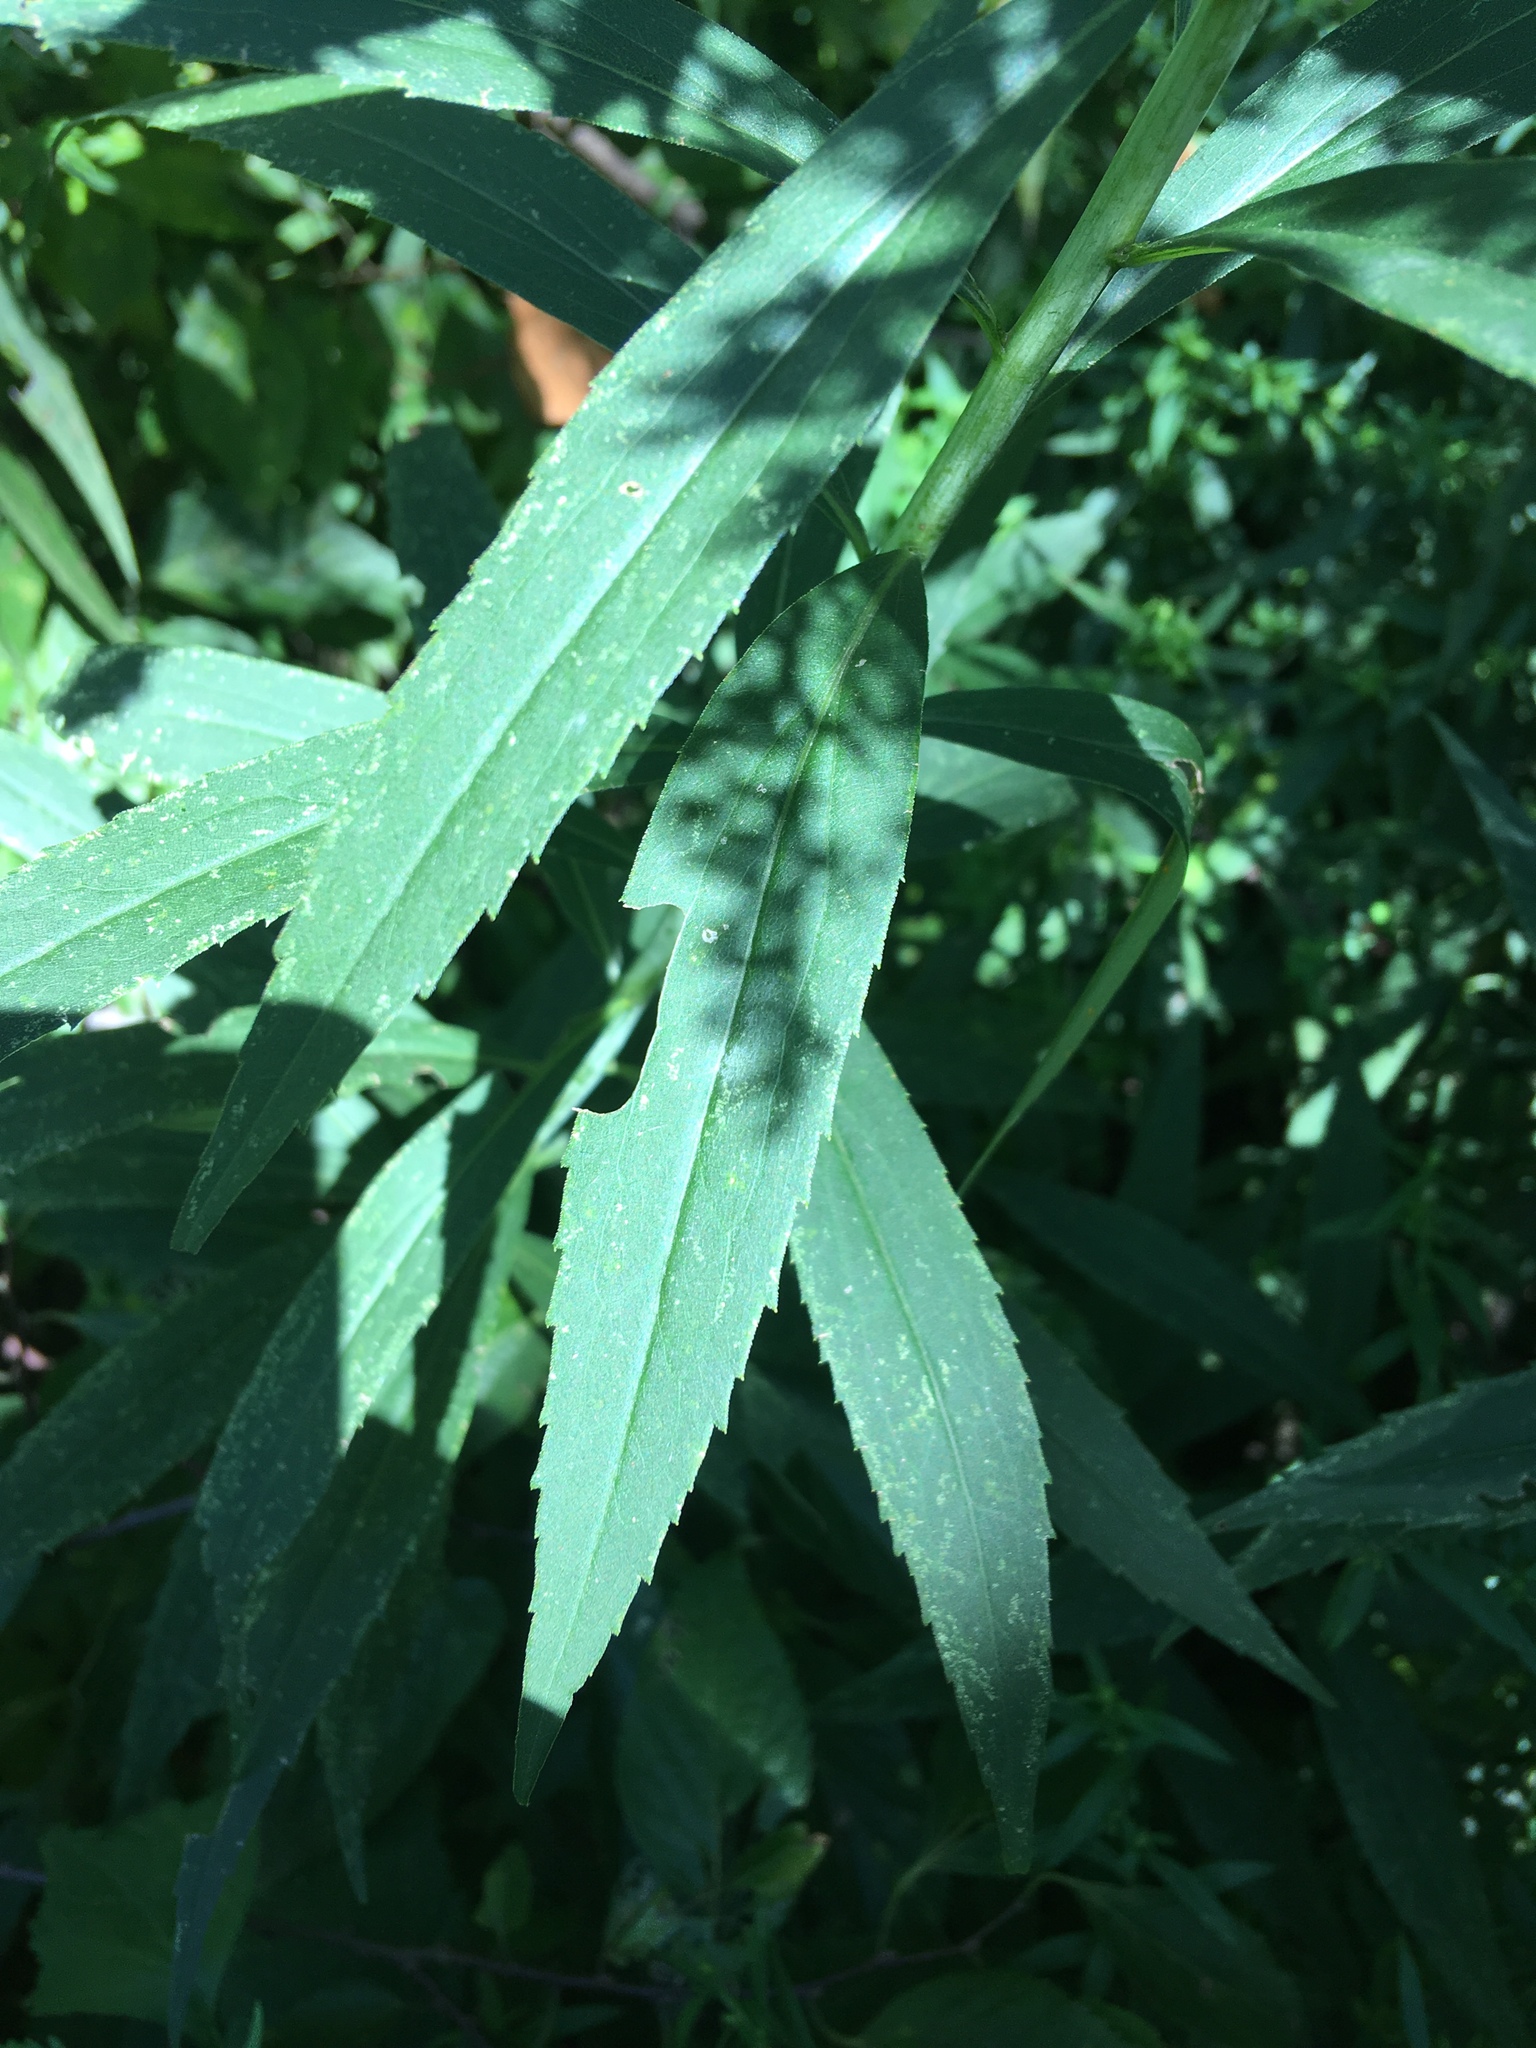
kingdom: Plantae
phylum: Tracheophyta
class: Magnoliopsida
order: Asterales
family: Asteraceae
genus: Solidago
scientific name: Solidago gigantea
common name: Giant goldenrod
